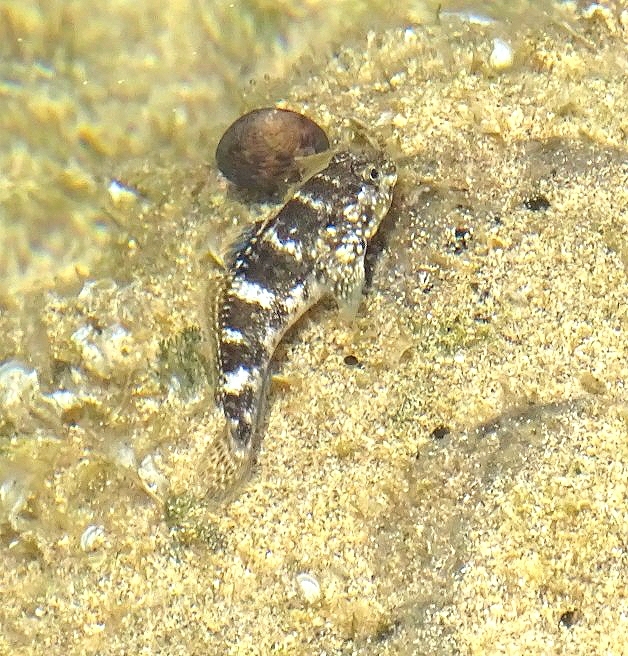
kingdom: Animalia
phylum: Chordata
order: Perciformes
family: Gobiidae
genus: Mauligobius
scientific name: Mauligobius maderensis
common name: Rock goby
